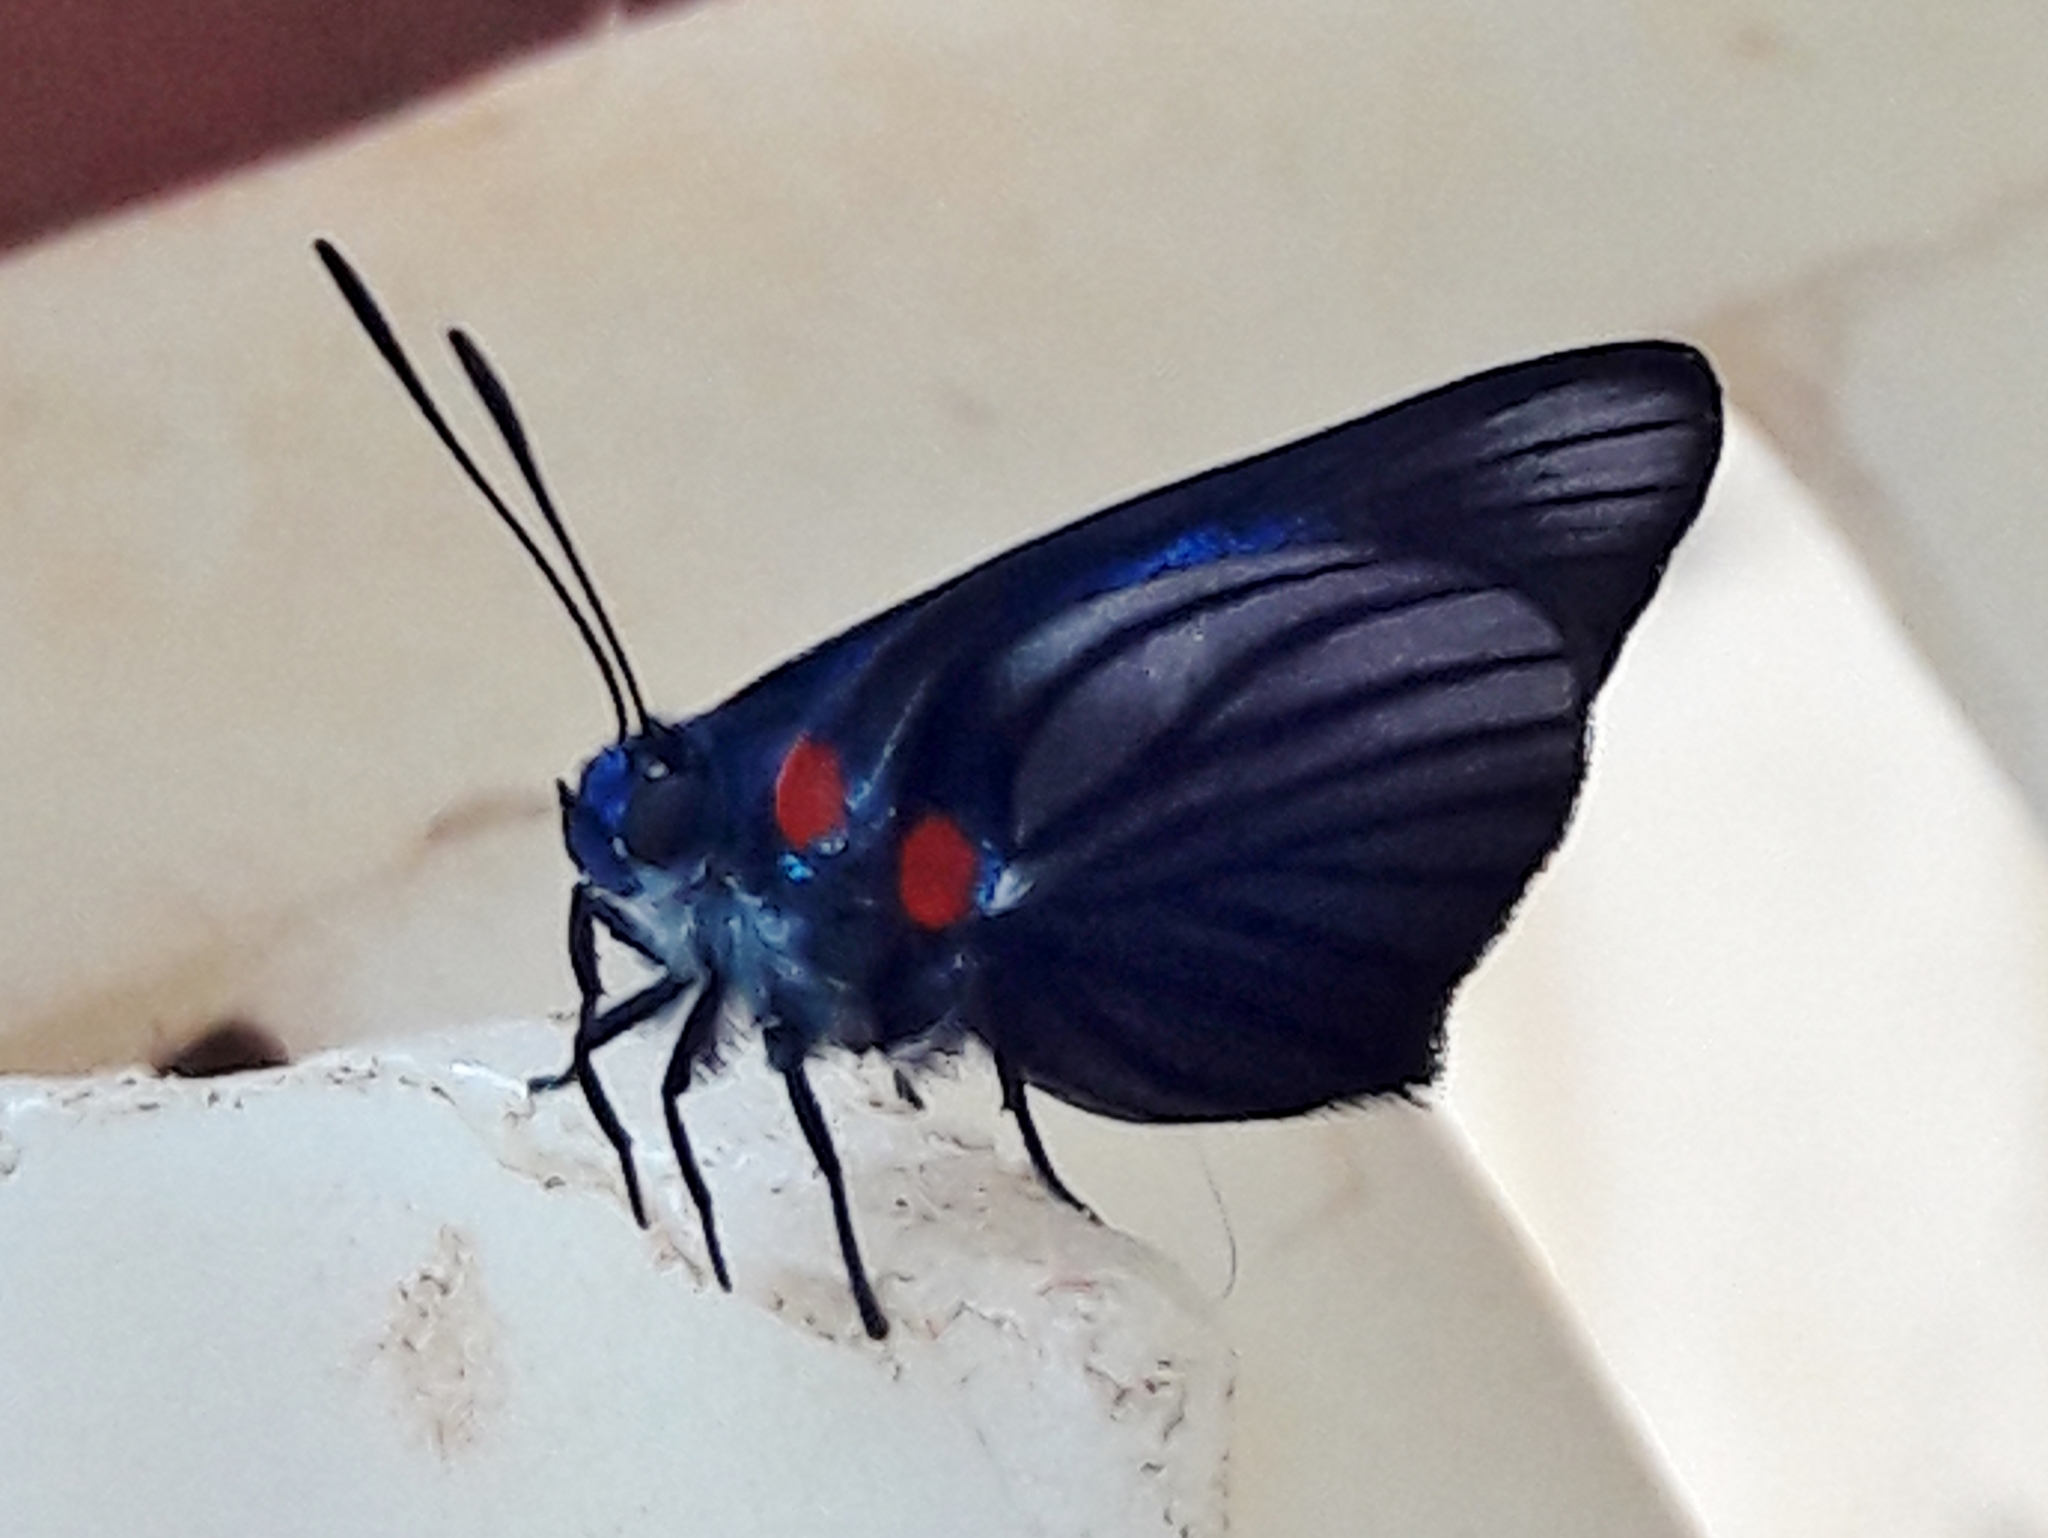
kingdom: Animalia
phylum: Arthropoda
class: Insecta
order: Lepidoptera
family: Lycaenidae
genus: Thecla
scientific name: Thecla schausi
